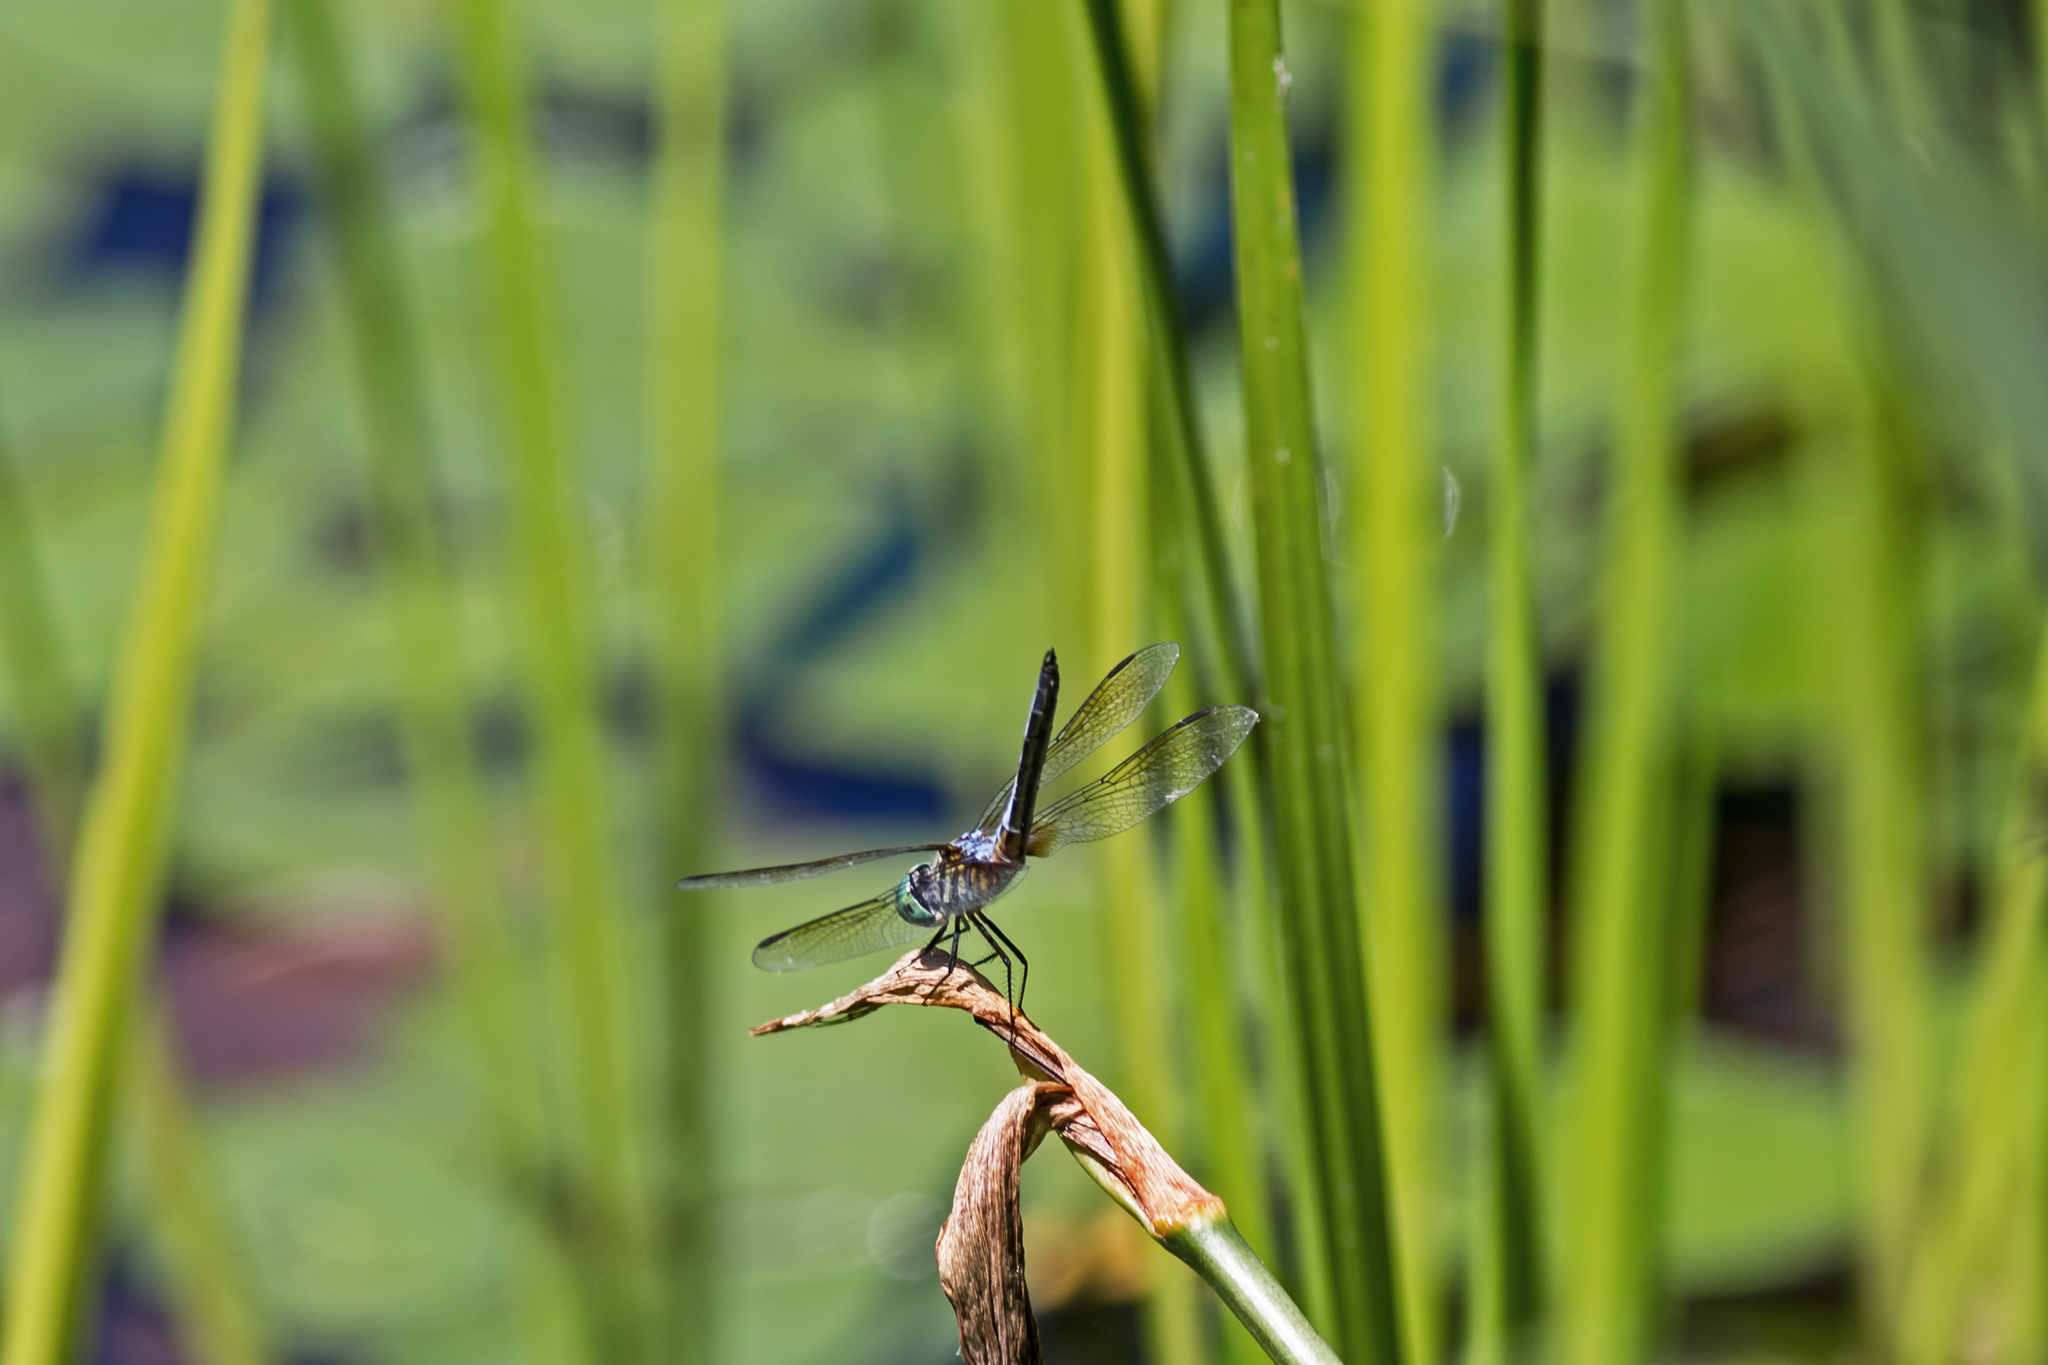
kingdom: Animalia
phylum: Arthropoda
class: Insecta
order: Odonata
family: Libellulidae
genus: Pachydiplax
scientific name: Pachydiplax longipennis
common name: Blue dasher
